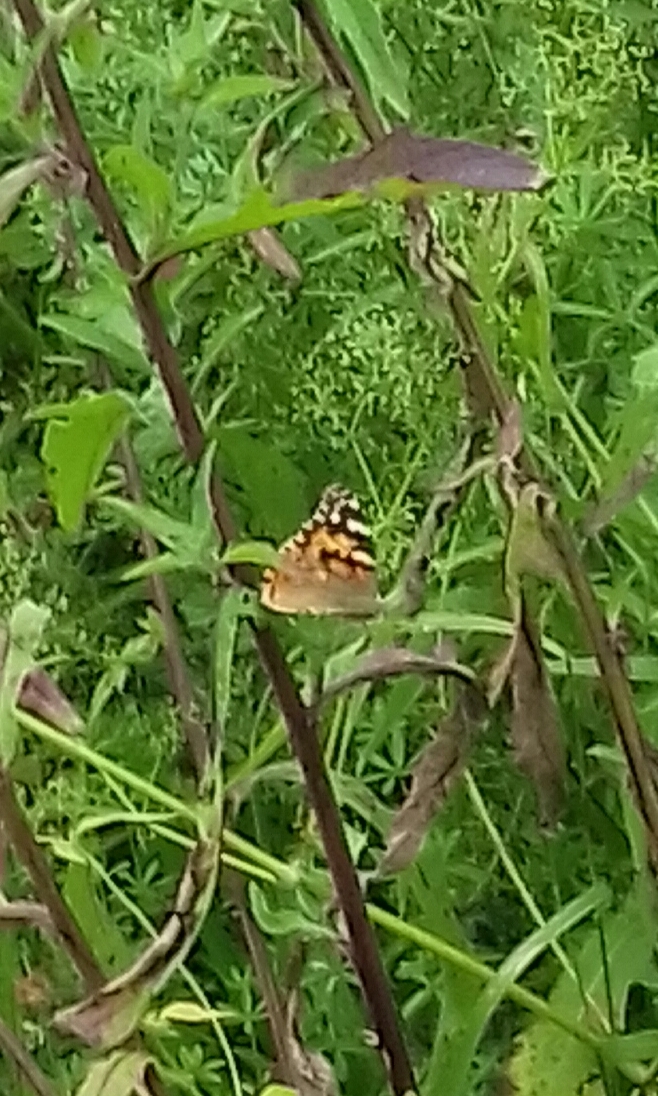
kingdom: Animalia
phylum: Arthropoda
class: Insecta
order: Lepidoptera
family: Nymphalidae
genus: Vanessa
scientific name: Vanessa cardui
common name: Painted lady
